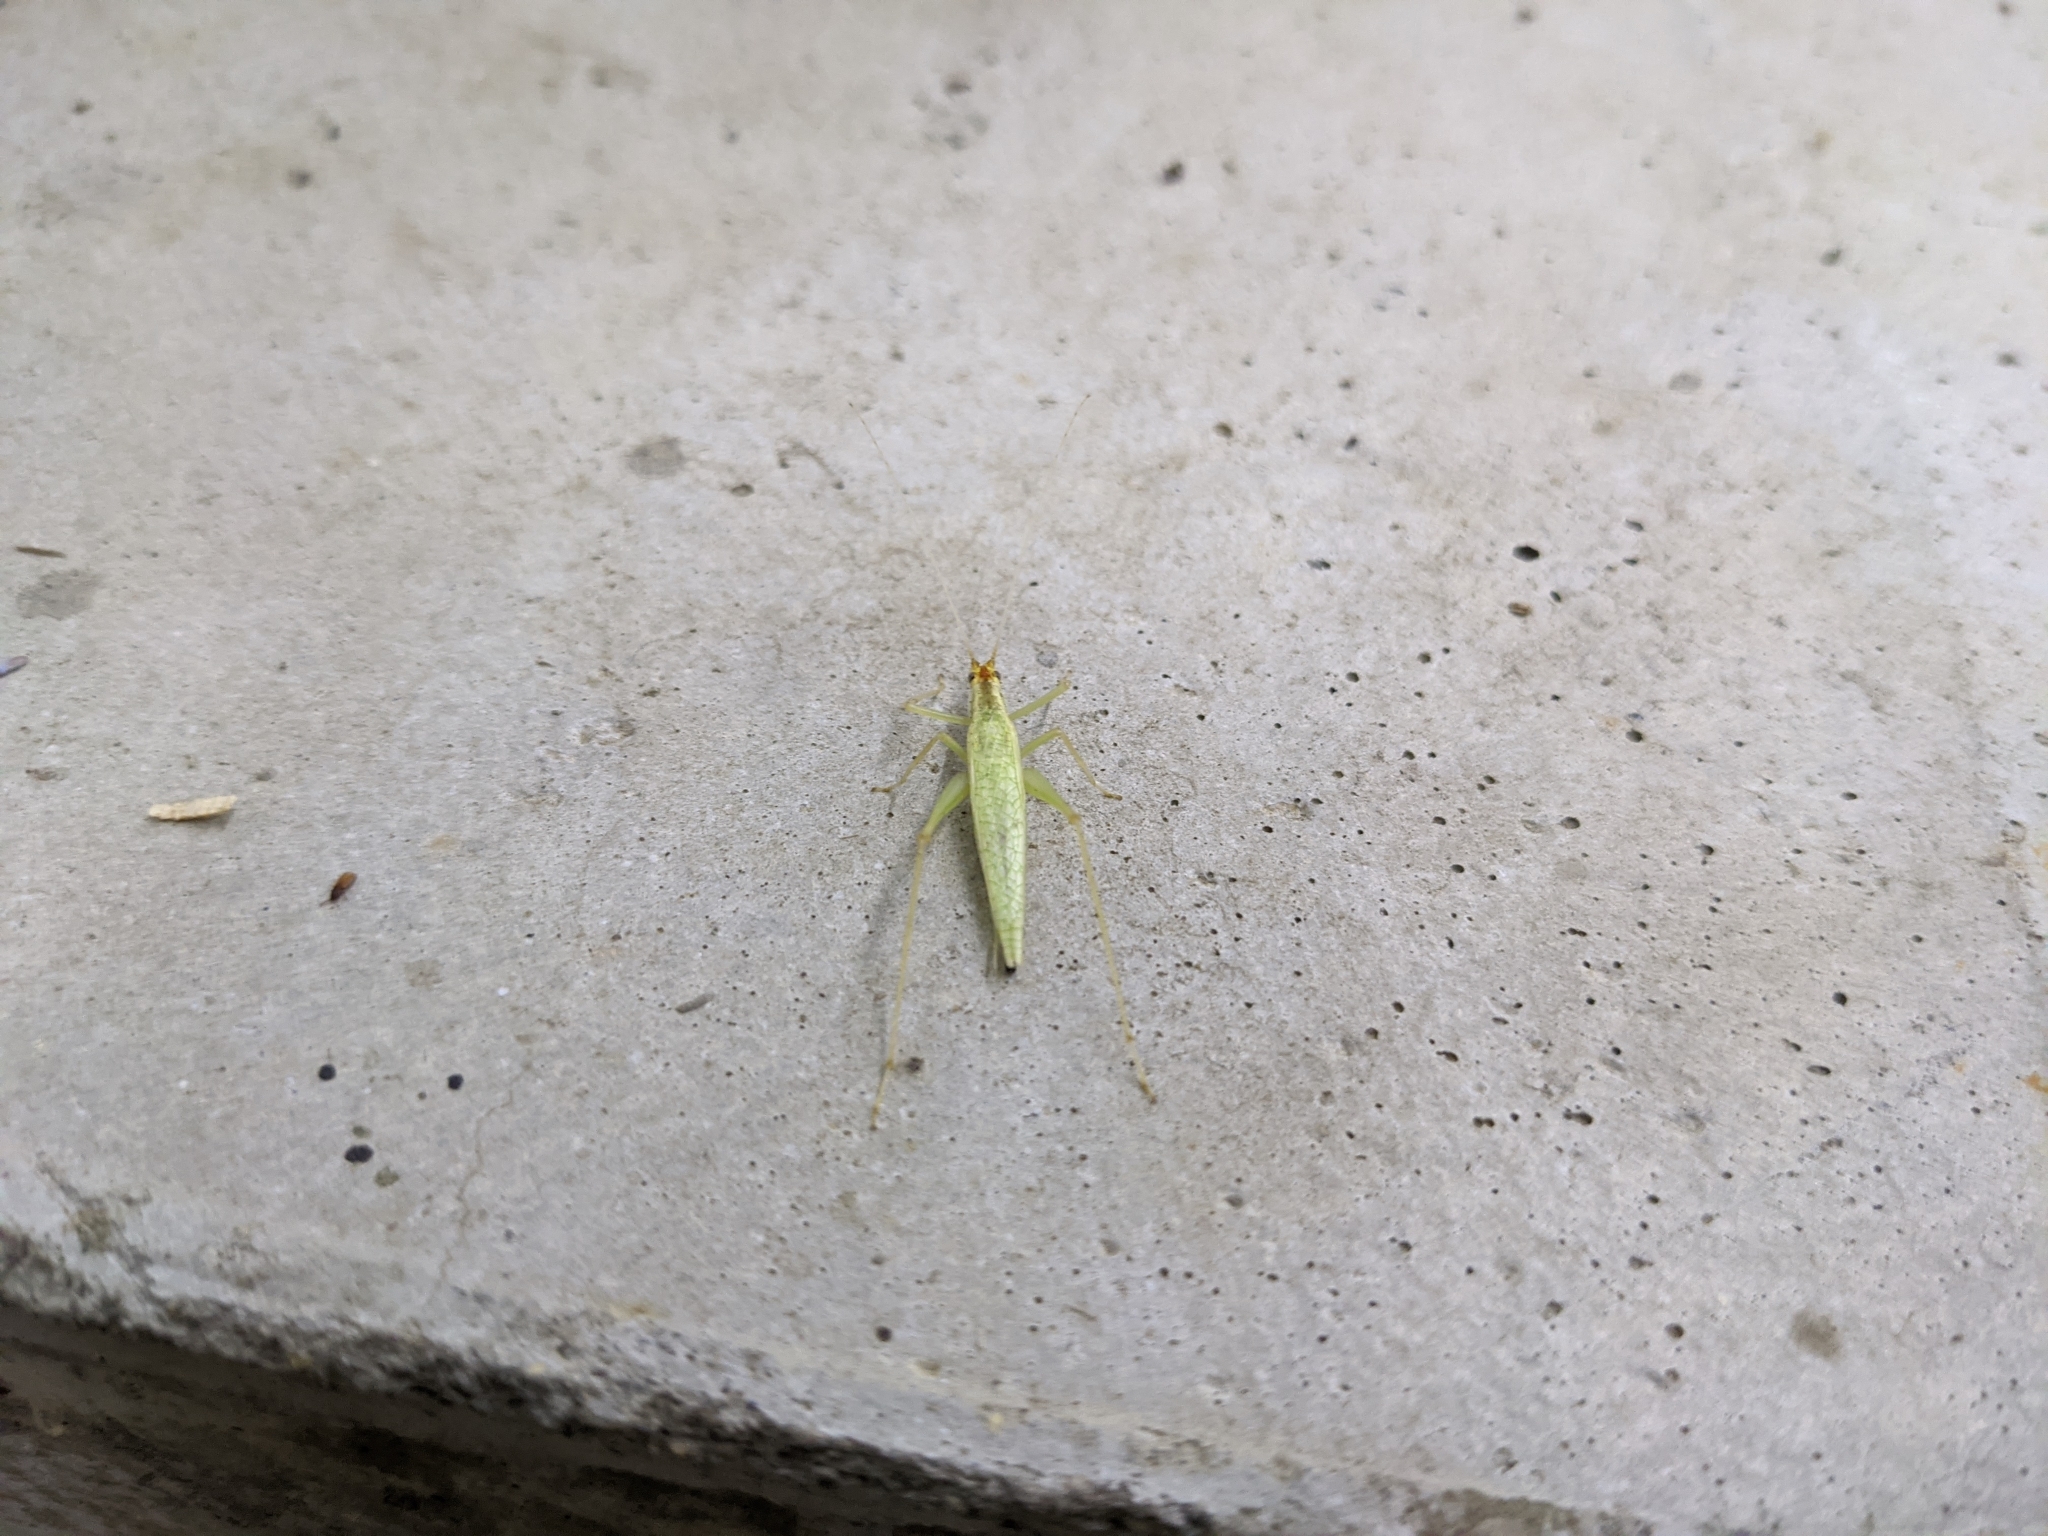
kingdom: Animalia
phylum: Arthropoda
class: Insecta
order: Orthoptera
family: Gryllidae
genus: Oecanthus
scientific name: Oecanthus niveus
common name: Narrow-winged tree cricket
